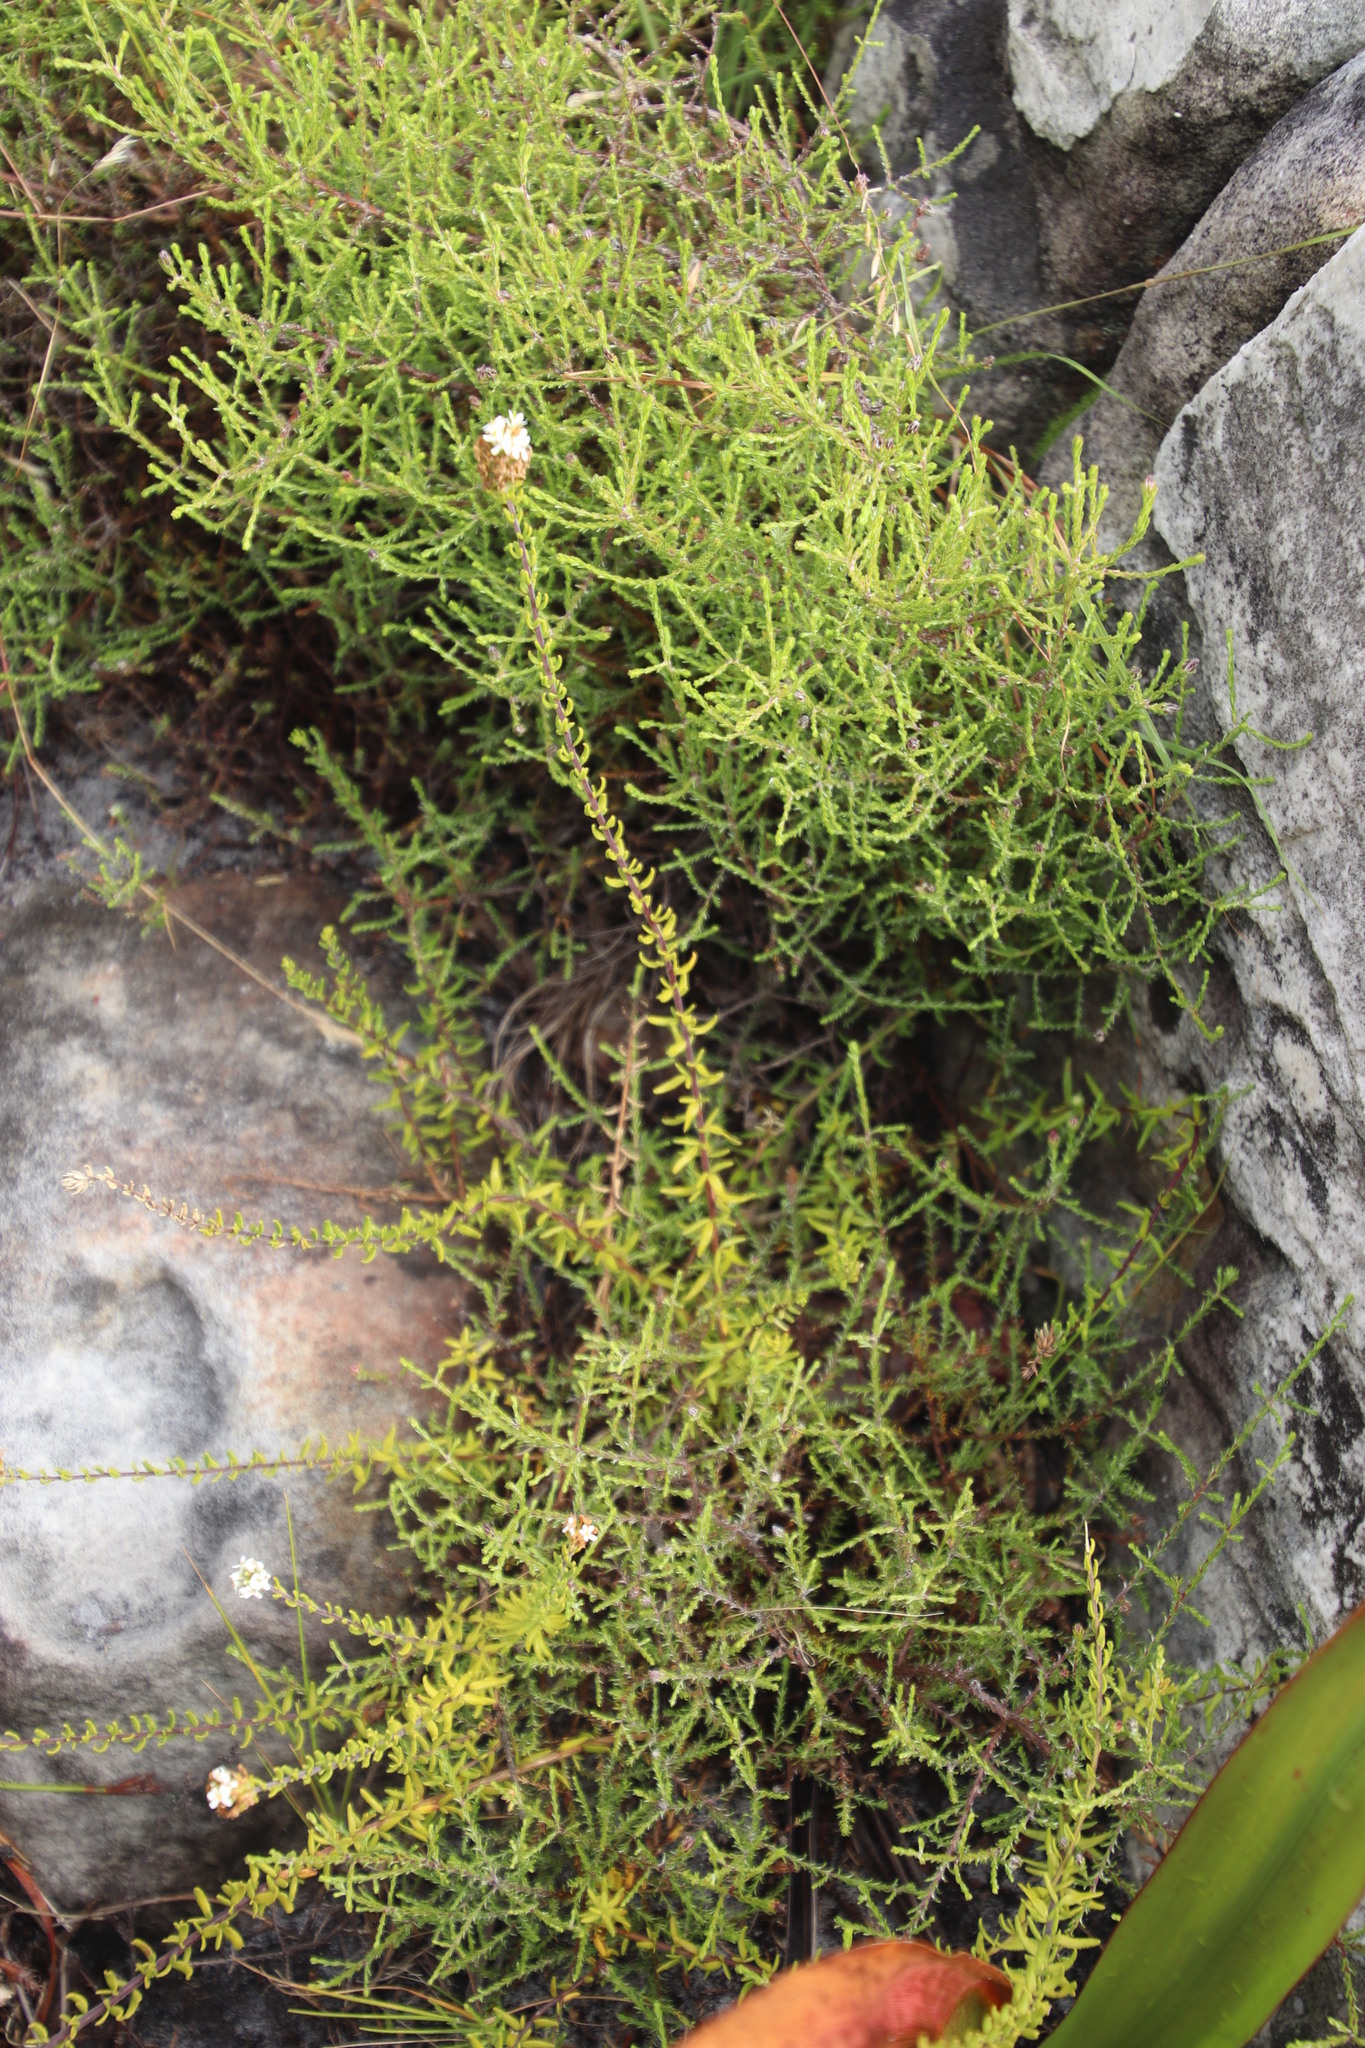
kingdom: Plantae
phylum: Tracheophyta
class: Magnoliopsida
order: Lamiales
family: Scrophulariaceae
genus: Selago
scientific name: Selago levynsiae
